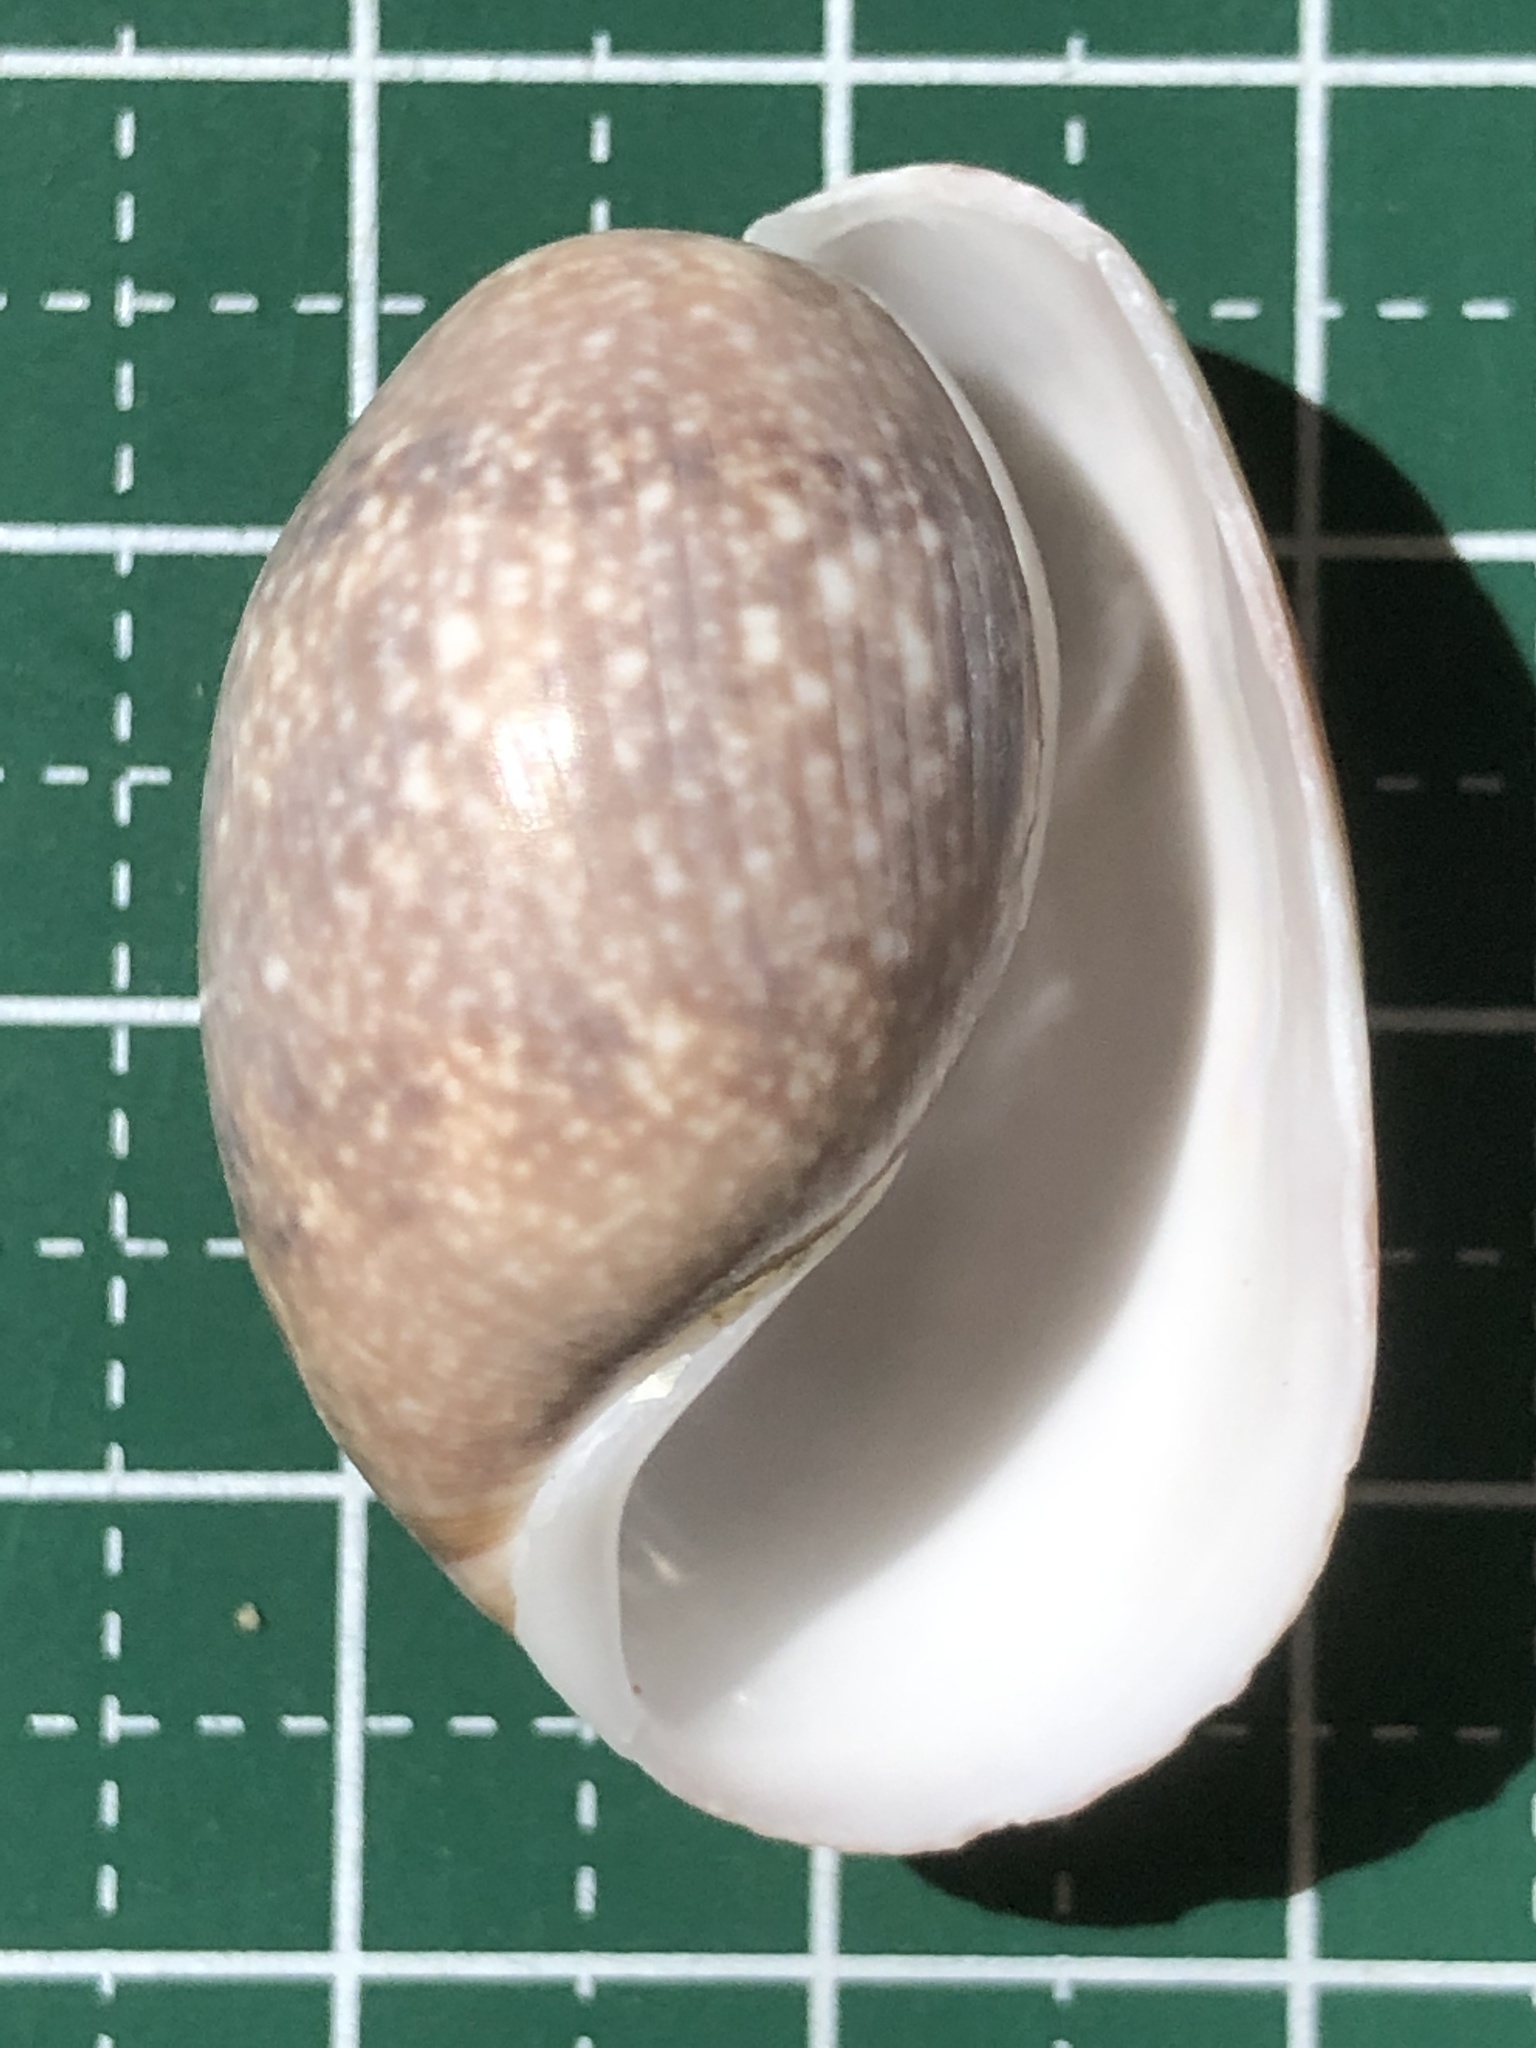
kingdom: Animalia
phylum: Mollusca
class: Gastropoda
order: Cephalaspidea
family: Bullidae
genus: Bulla
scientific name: Bulla vernicosa
